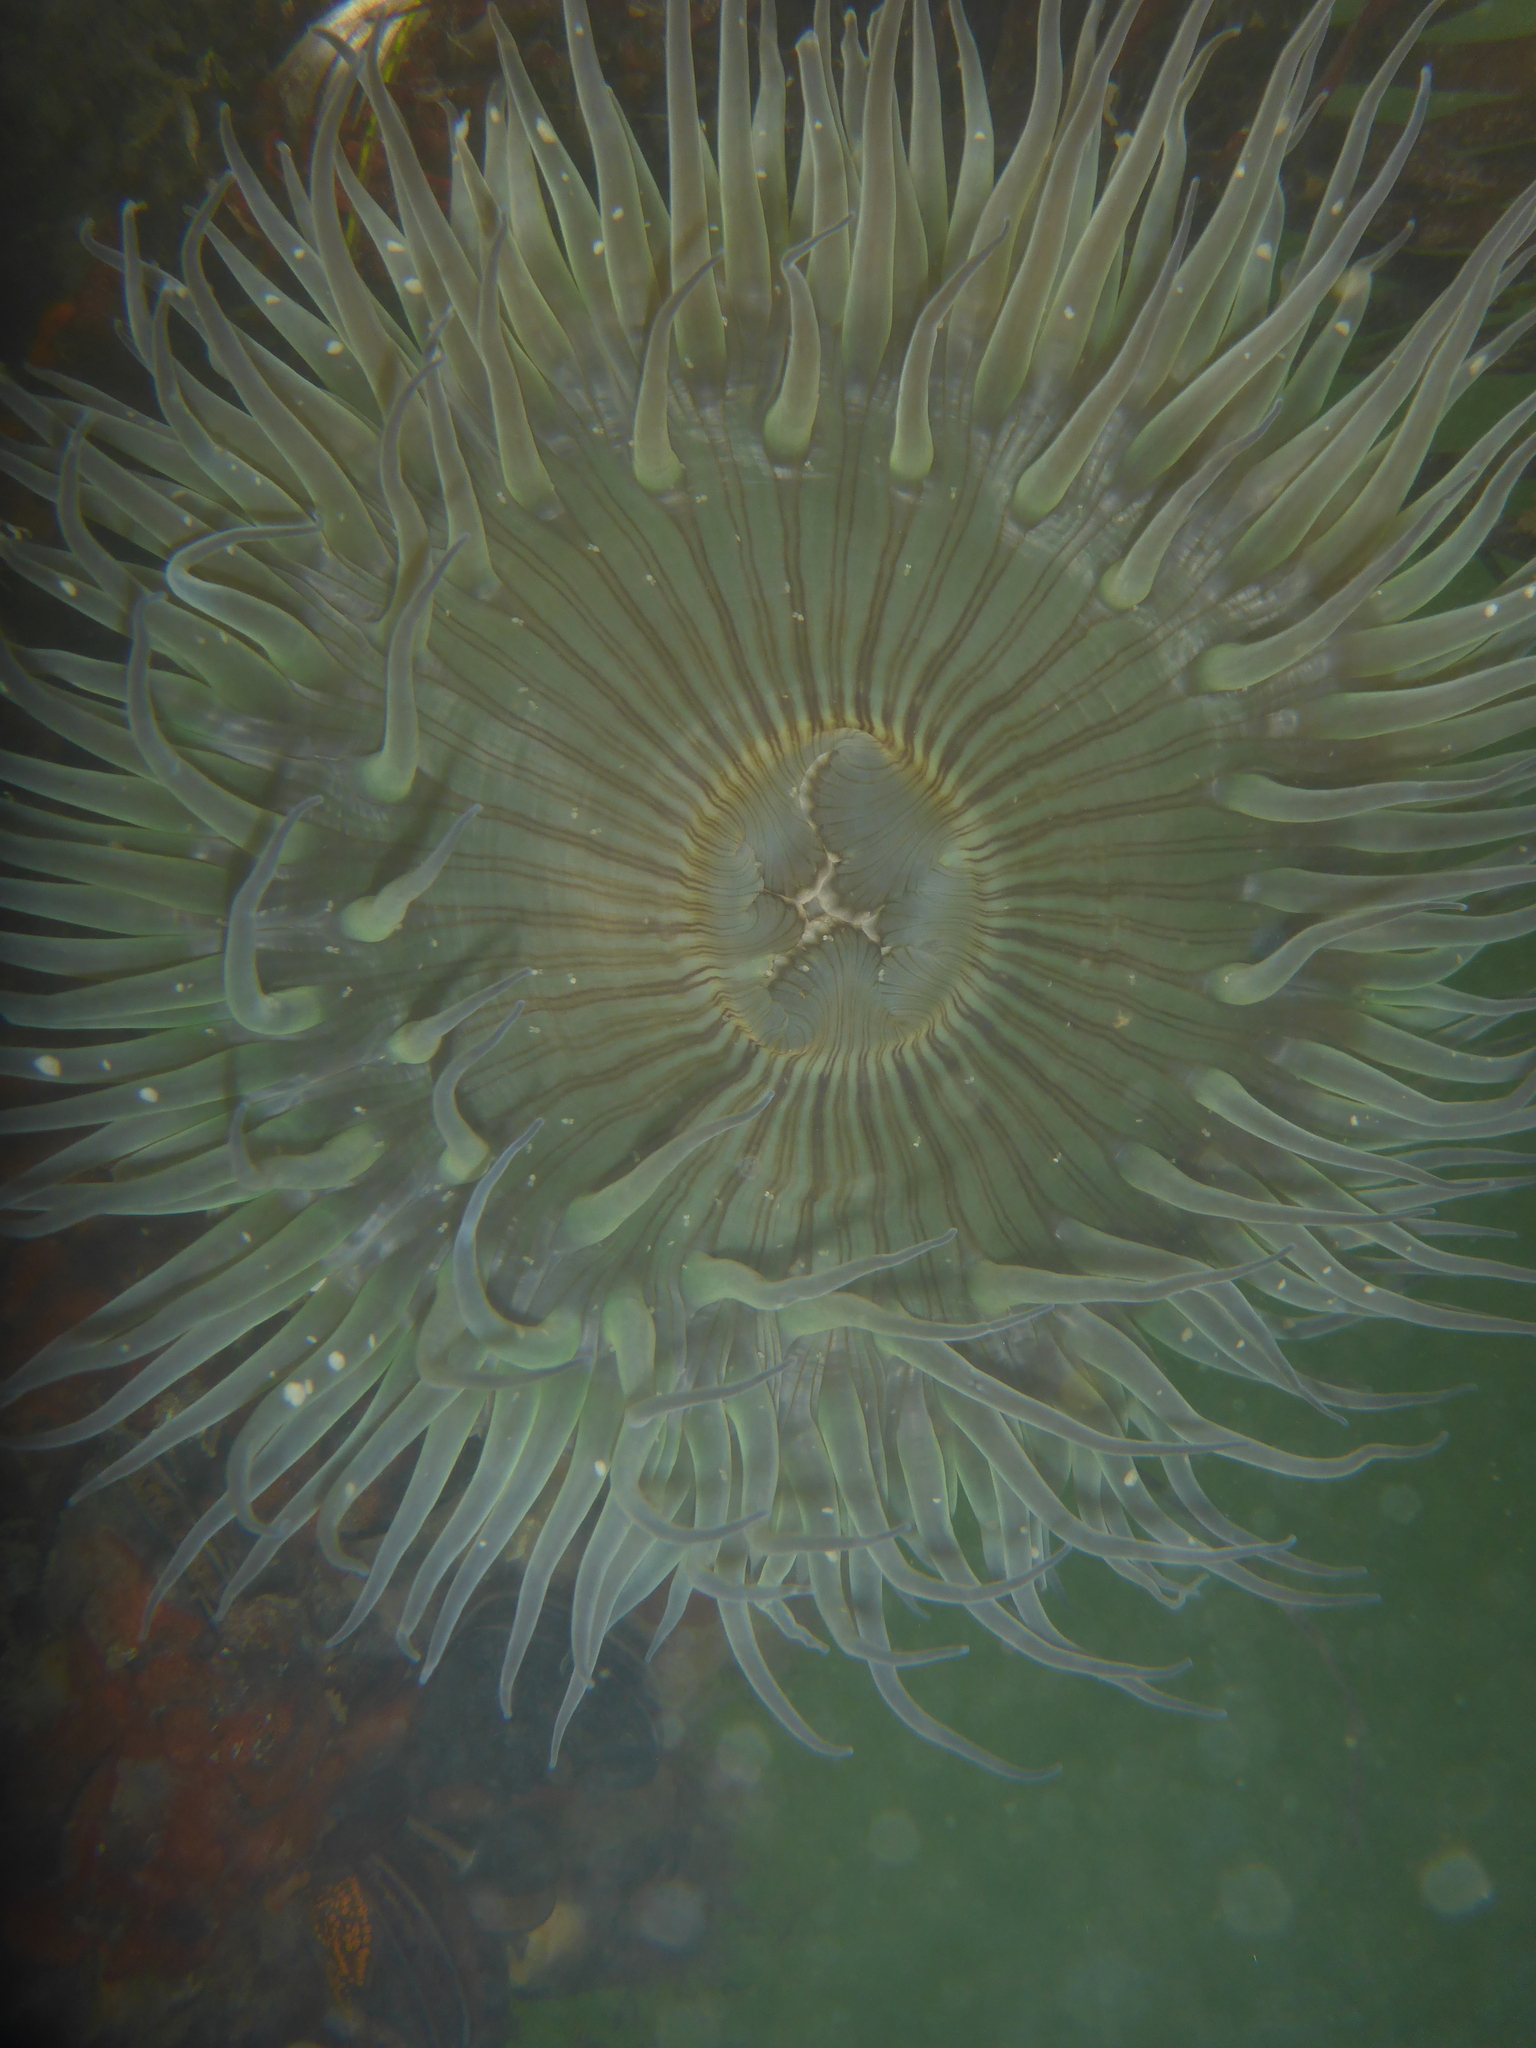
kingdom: Animalia
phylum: Cnidaria
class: Anthozoa
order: Actiniaria
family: Actiniidae
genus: Anthopleura
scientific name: Anthopleura sola
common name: Sun anemone
